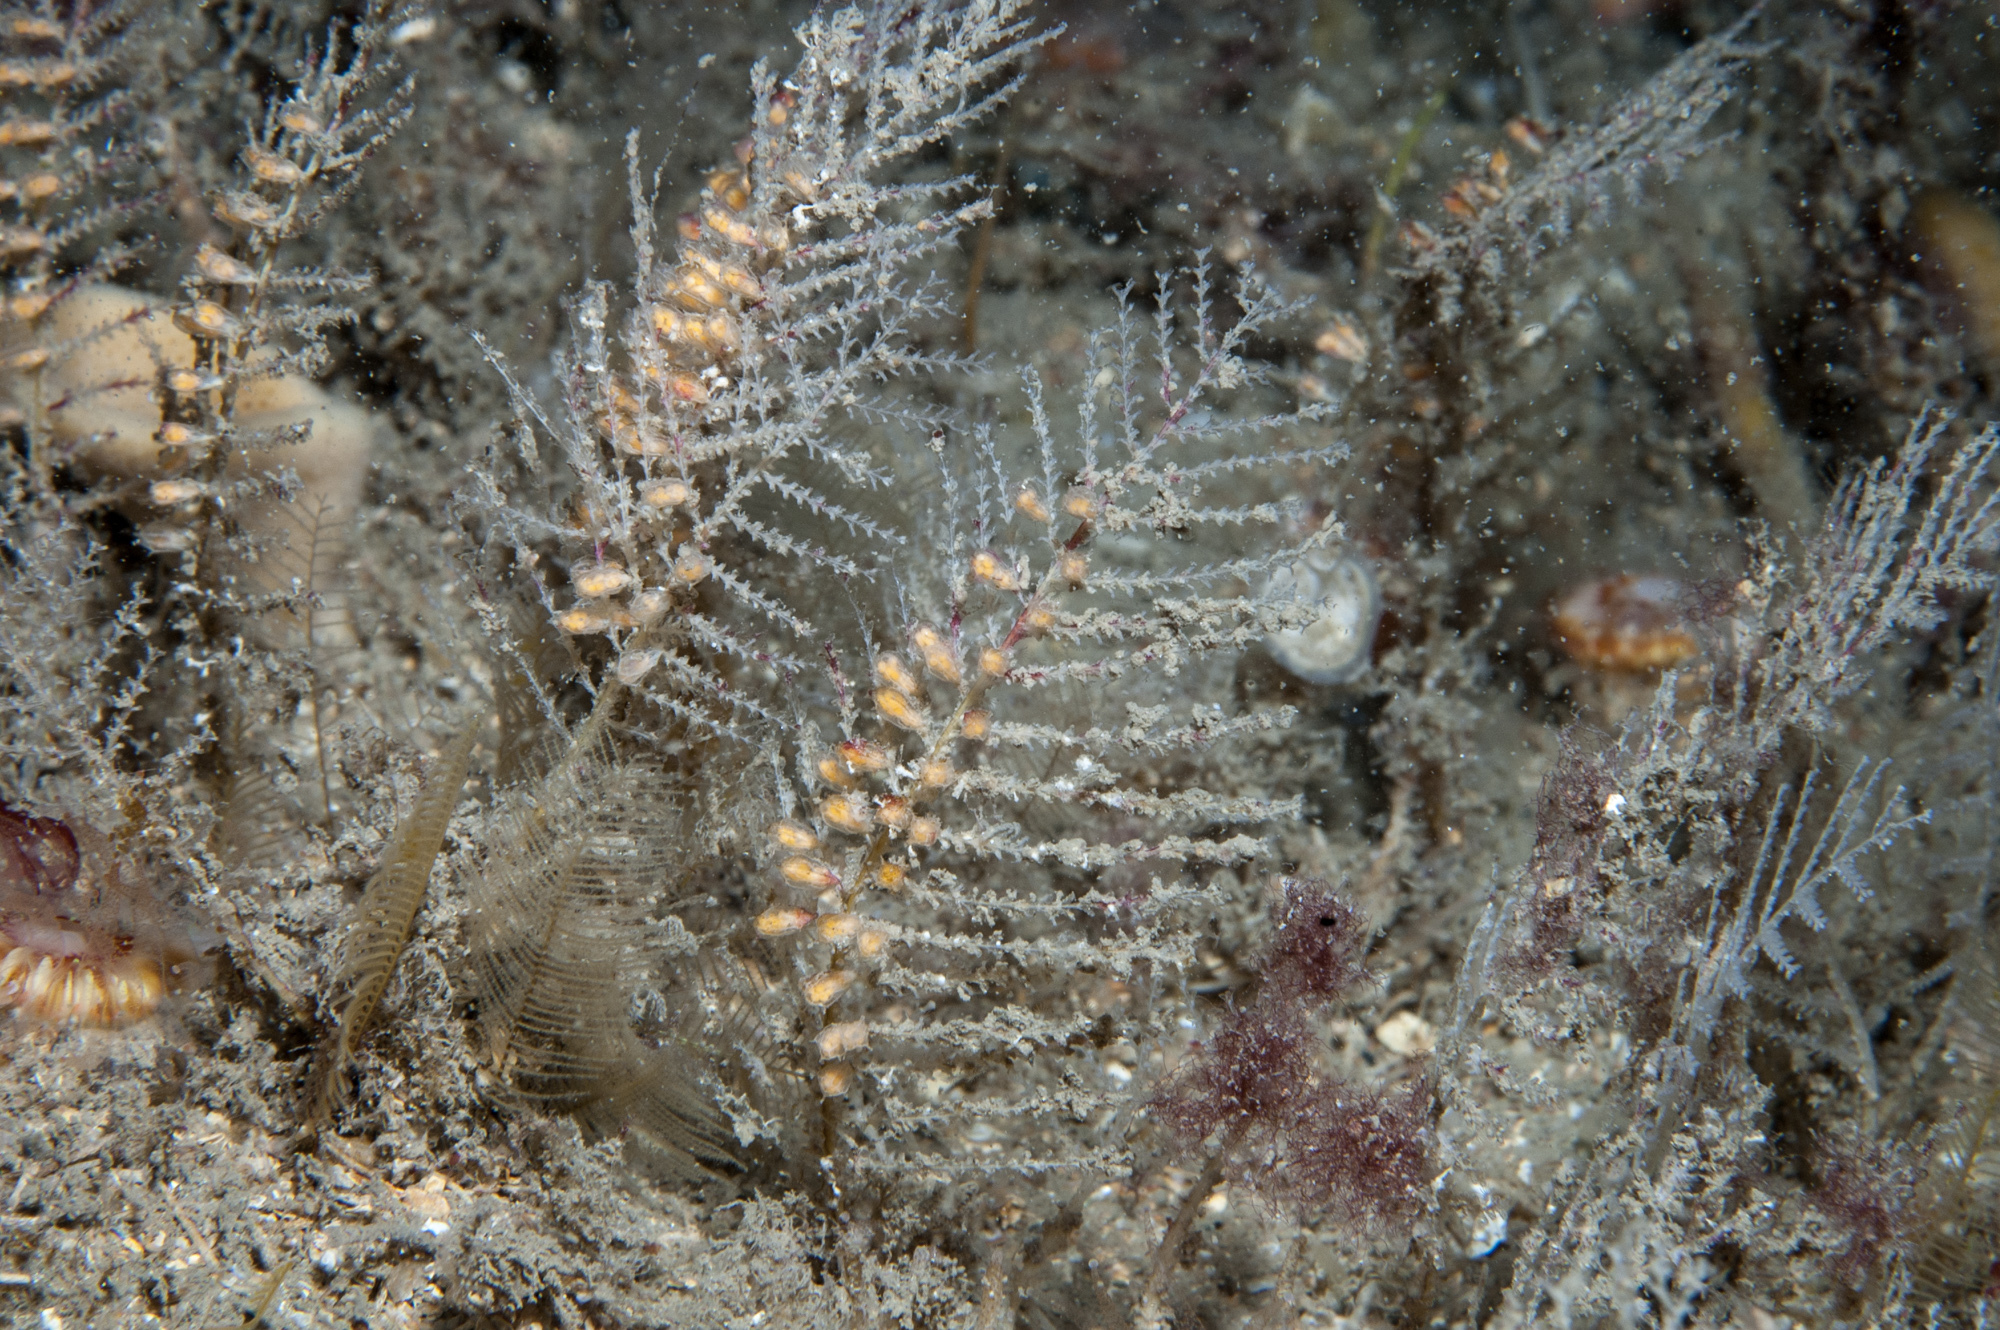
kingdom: Animalia
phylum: Cnidaria
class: Hydrozoa
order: Leptothecata
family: Sertulariidae
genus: Diphasia
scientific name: Diphasia margareta
